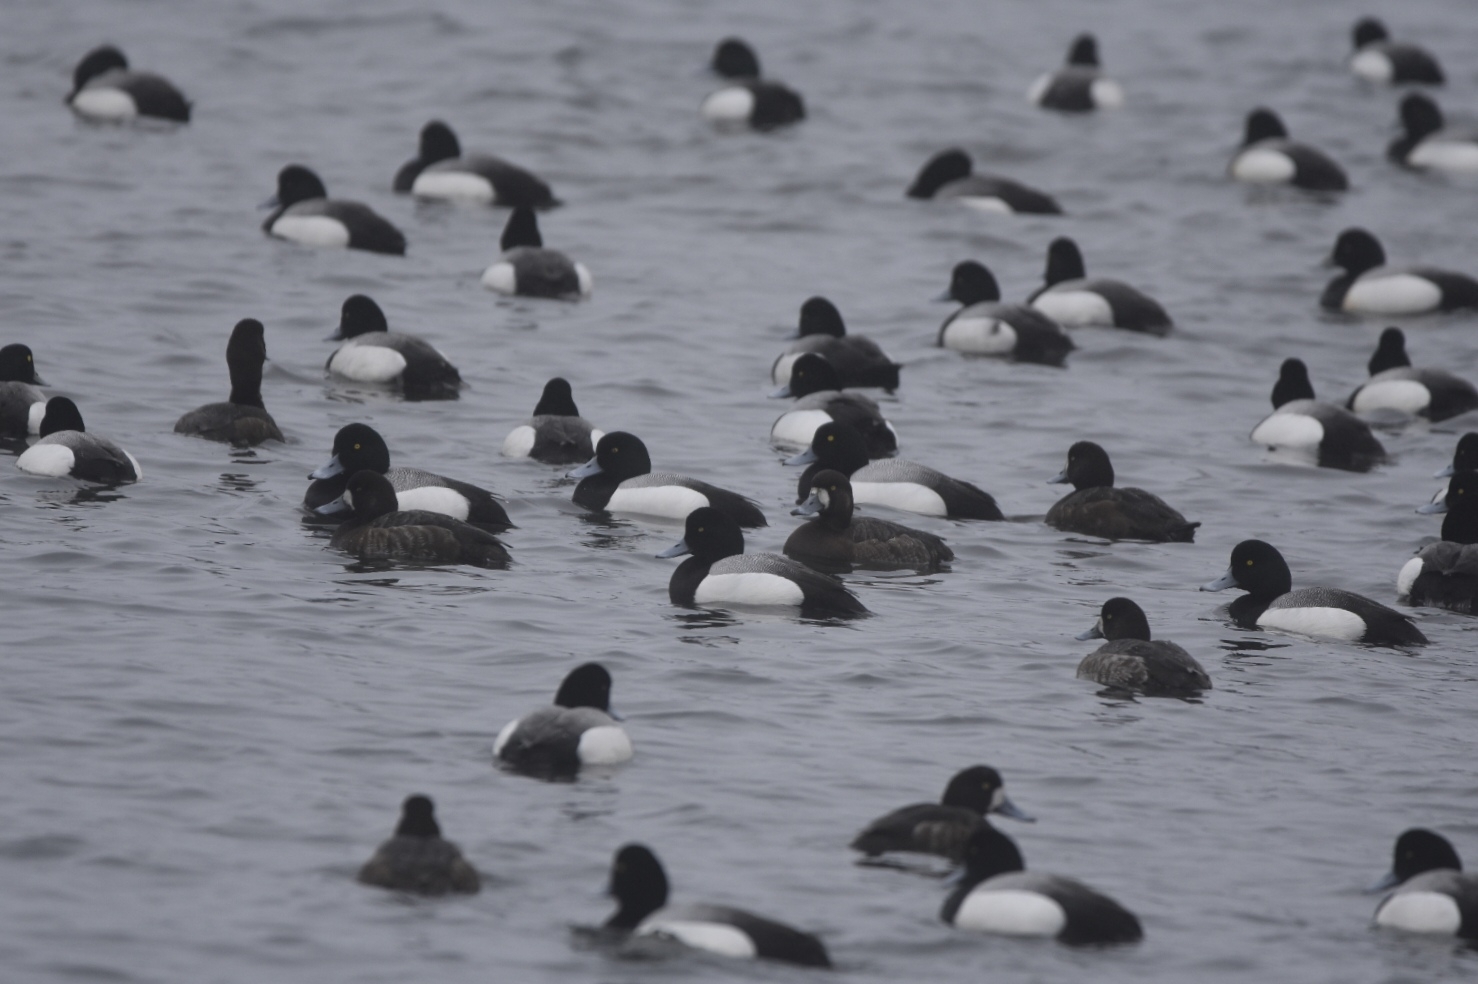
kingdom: Animalia
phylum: Chordata
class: Aves
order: Anseriformes
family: Anatidae
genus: Aythya
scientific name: Aythya marila
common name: Greater scaup
